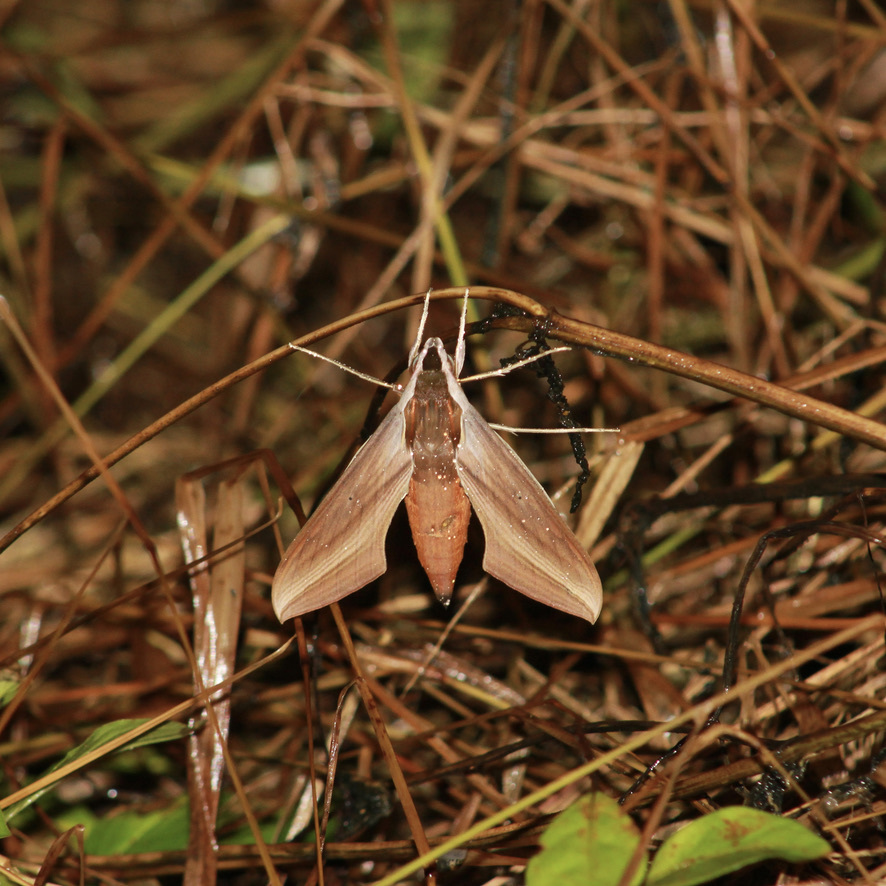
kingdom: Animalia
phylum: Arthropoda
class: Insecta
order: Lepidoptera
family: Sphingidae
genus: Xylophanes
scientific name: Xylophanes tersa
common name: Tersa sphinx
